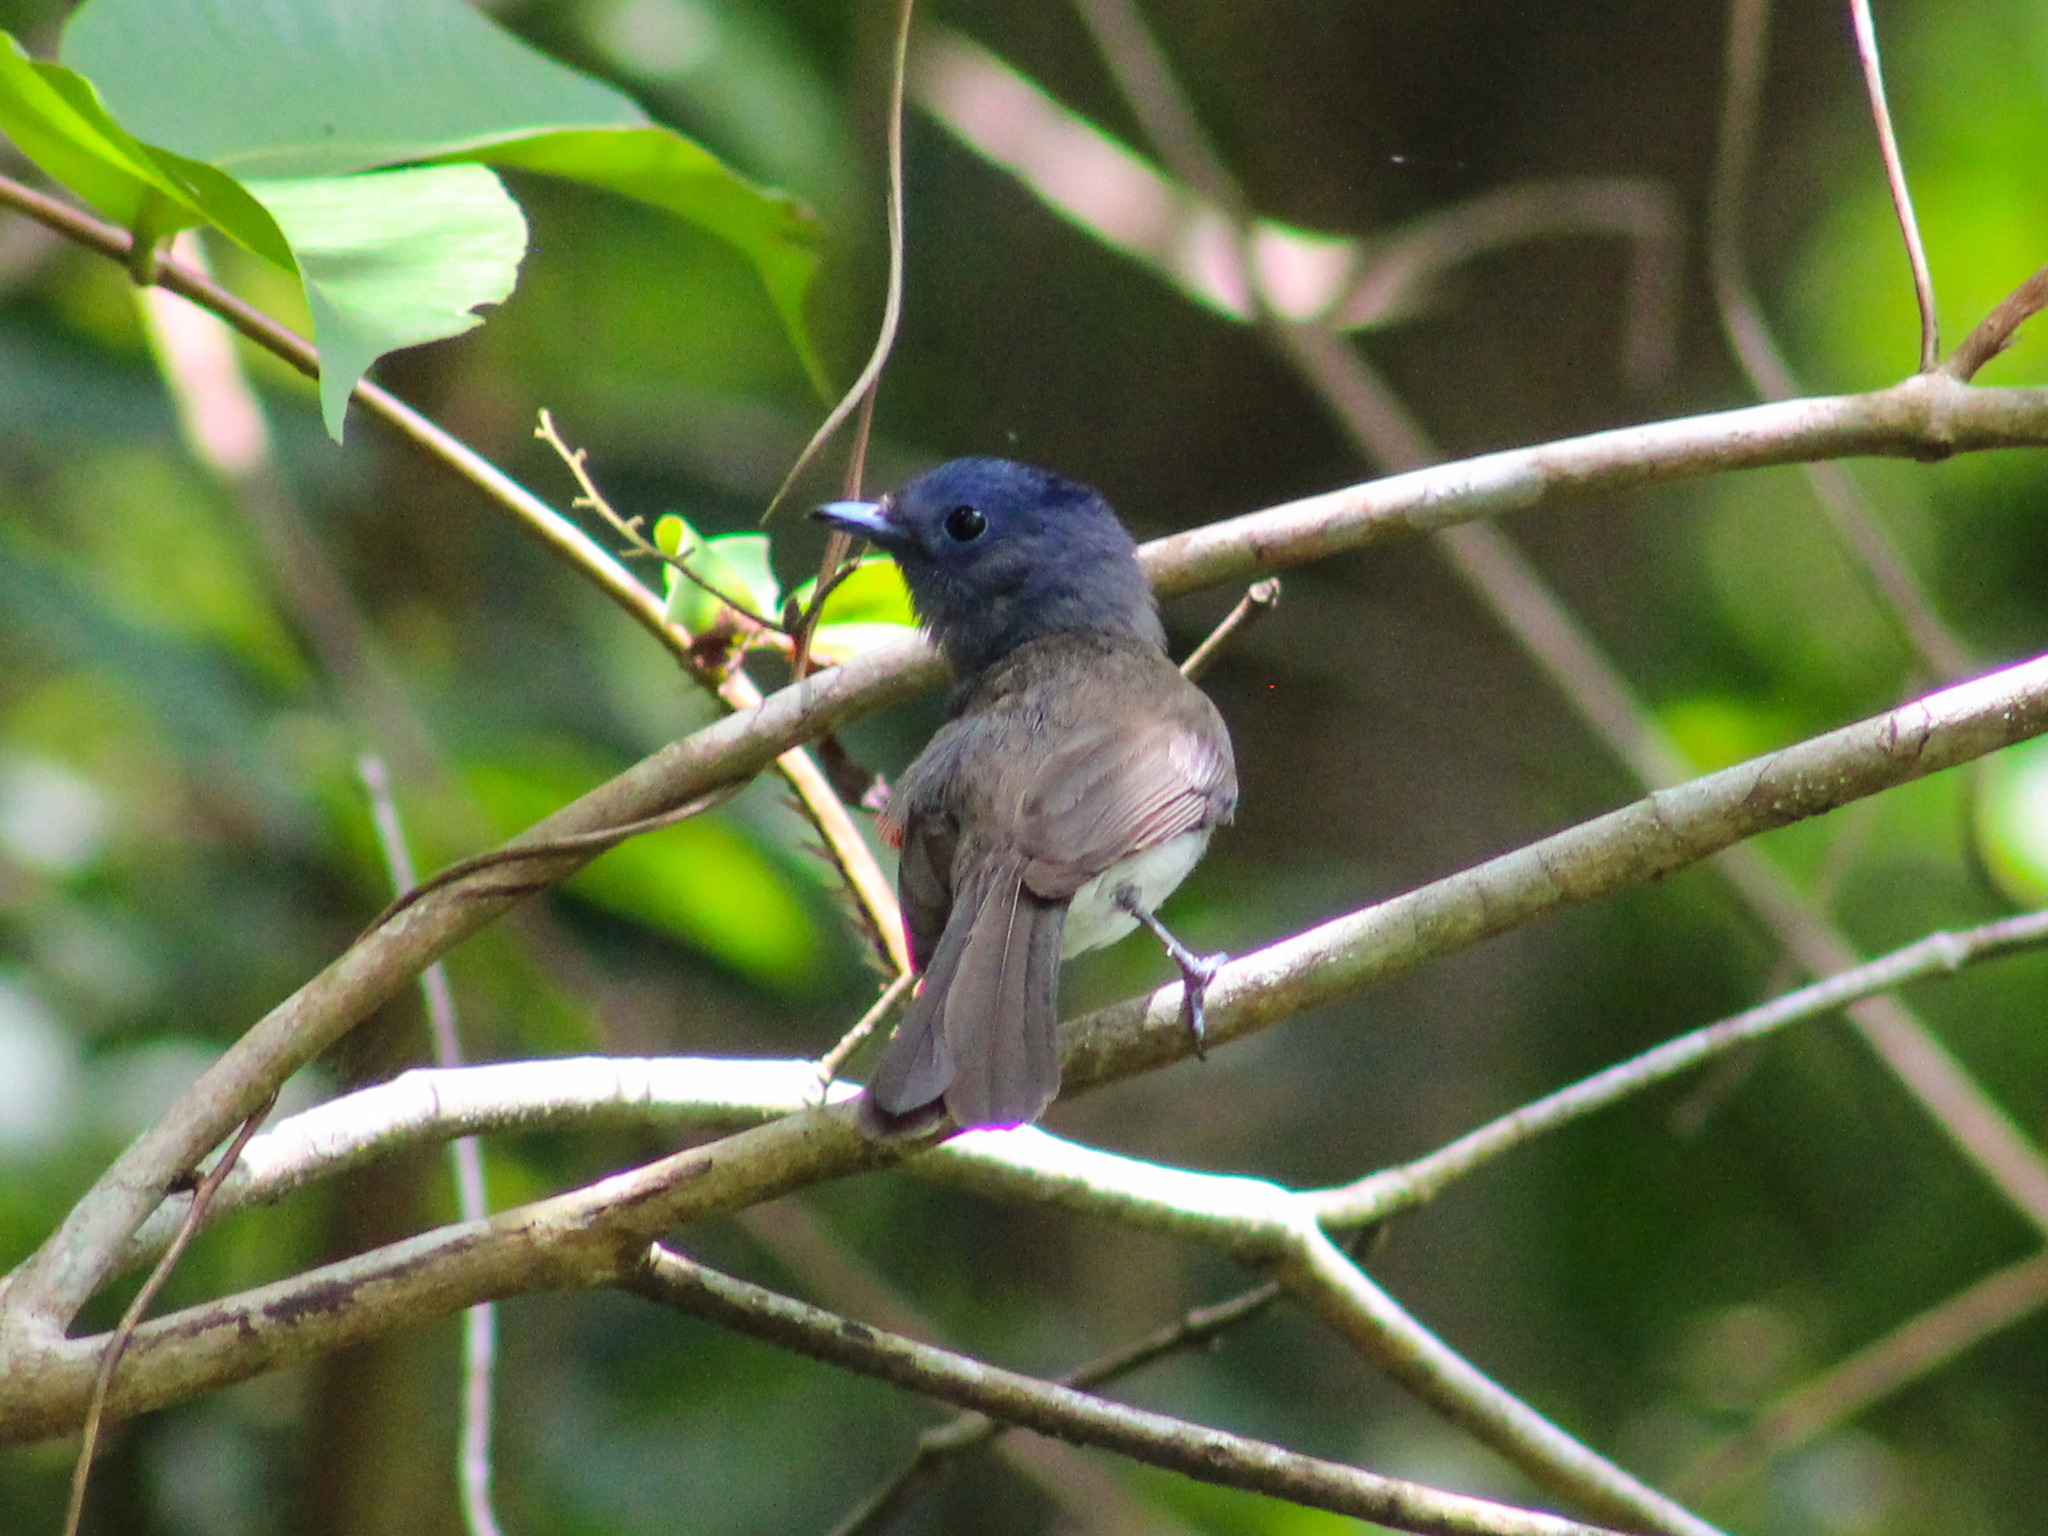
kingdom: Animalia
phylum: Chordata
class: Aves
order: Passeriformes
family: Monarchidae
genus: Hypothymis
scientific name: Hypothymis azurea
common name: Black-naped monarch
